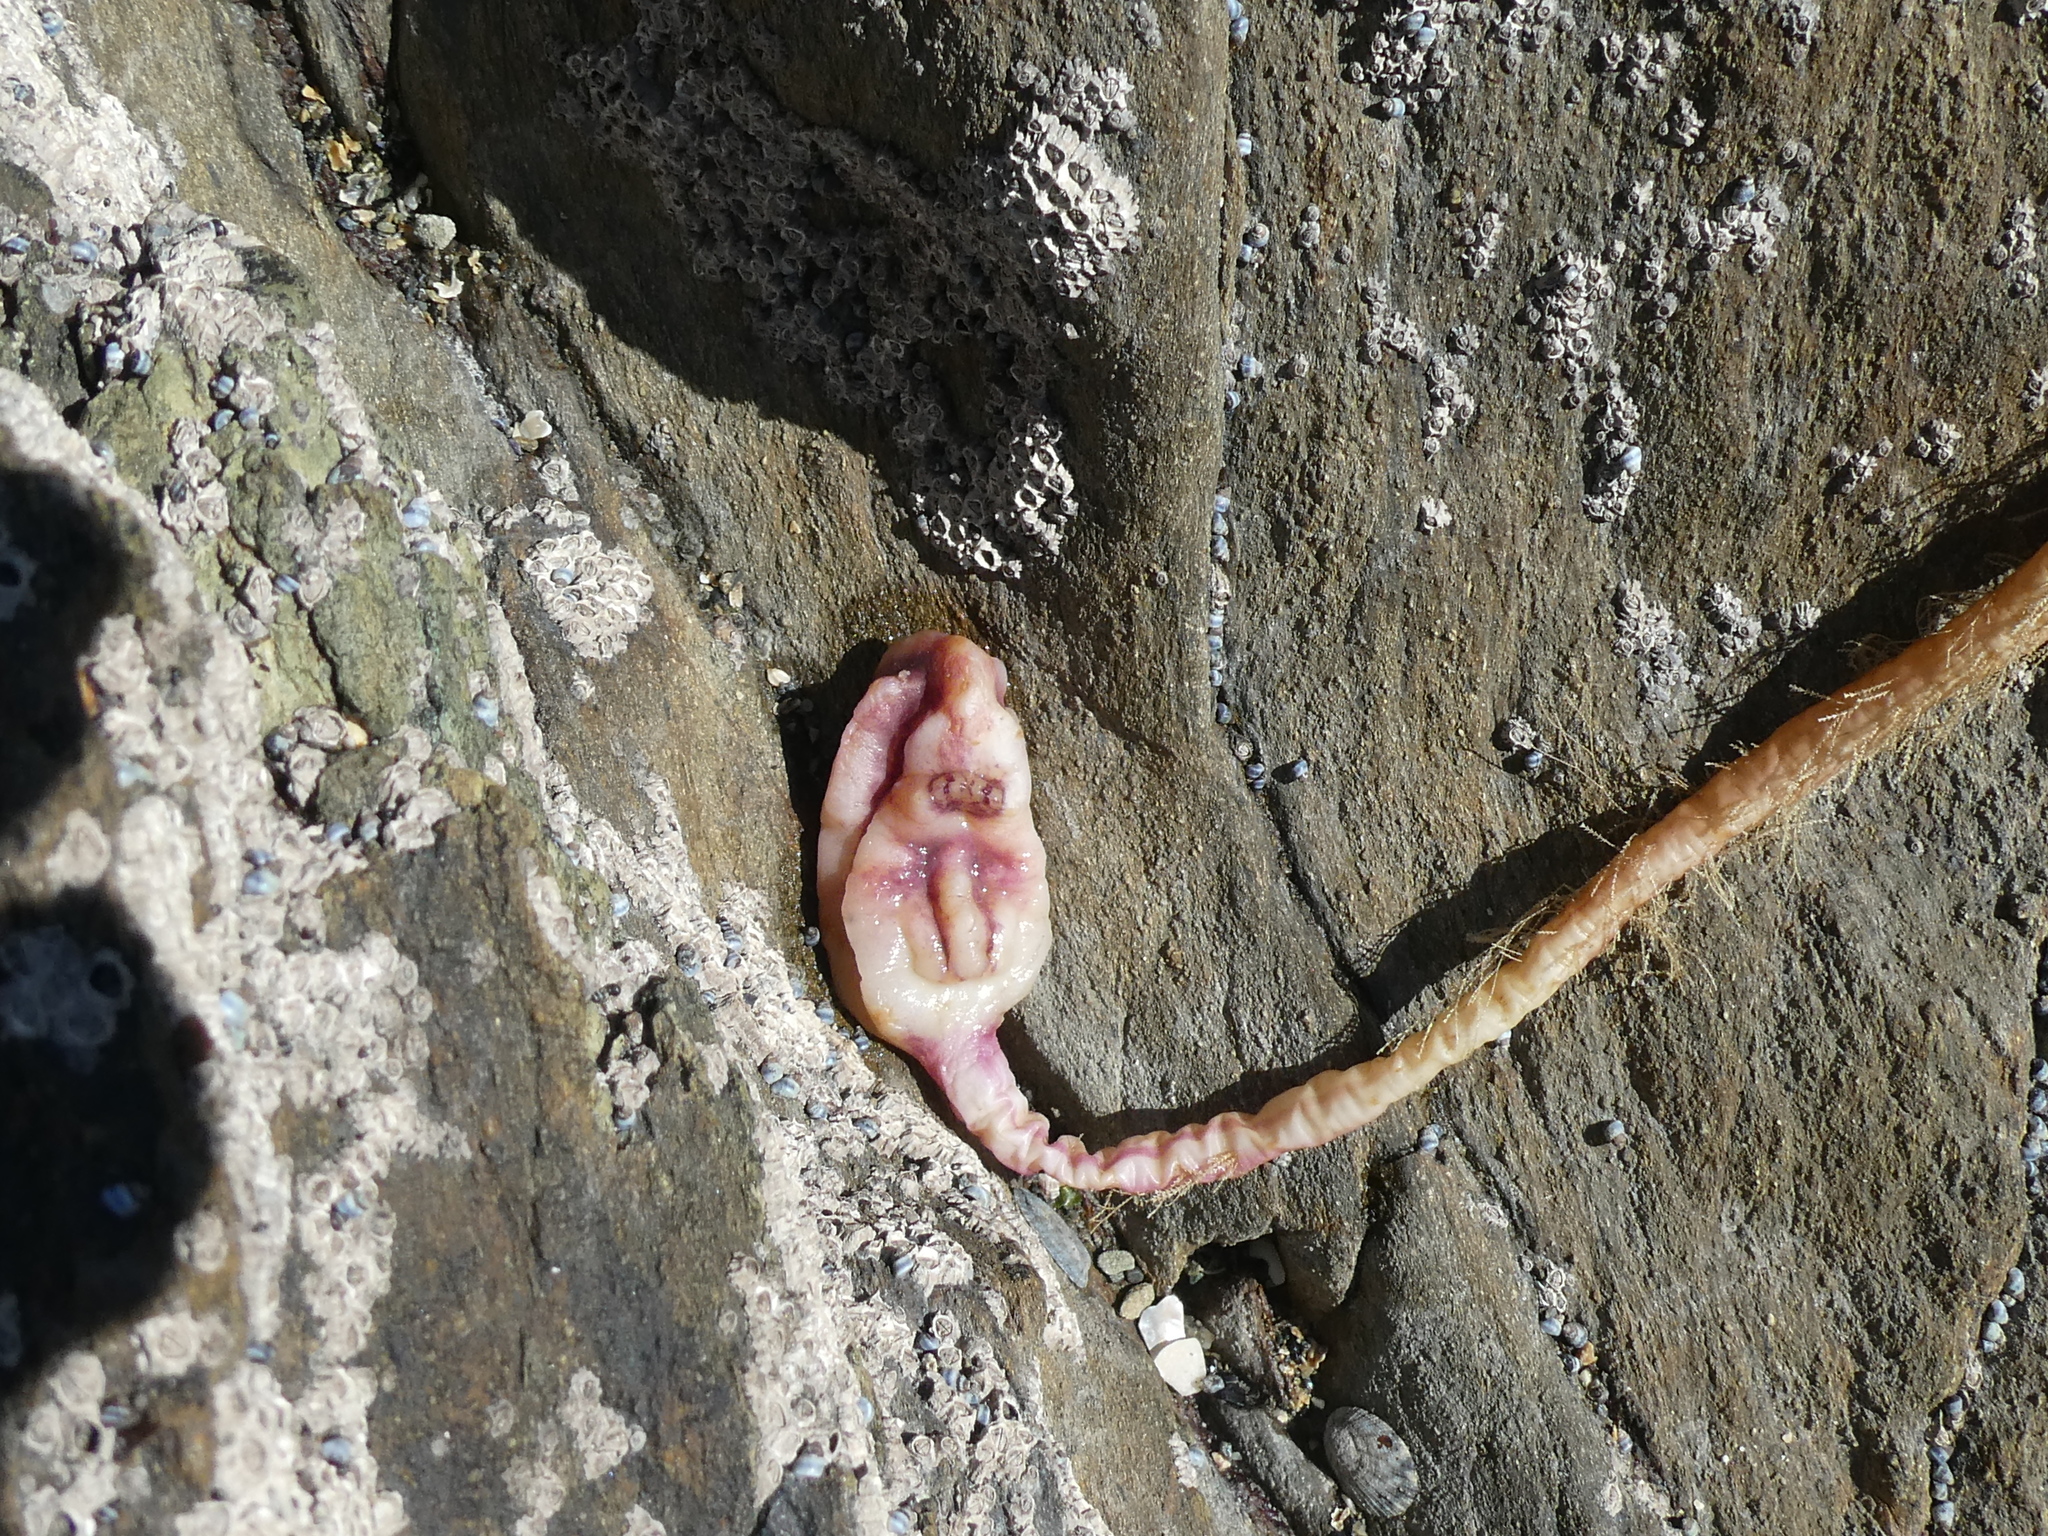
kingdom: Animalia
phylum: Chordata
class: Ascidiacea
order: Stolidobranchia
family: Pyuridae
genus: Pyura
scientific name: Pyura pachydermatina
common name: Sea tulip
